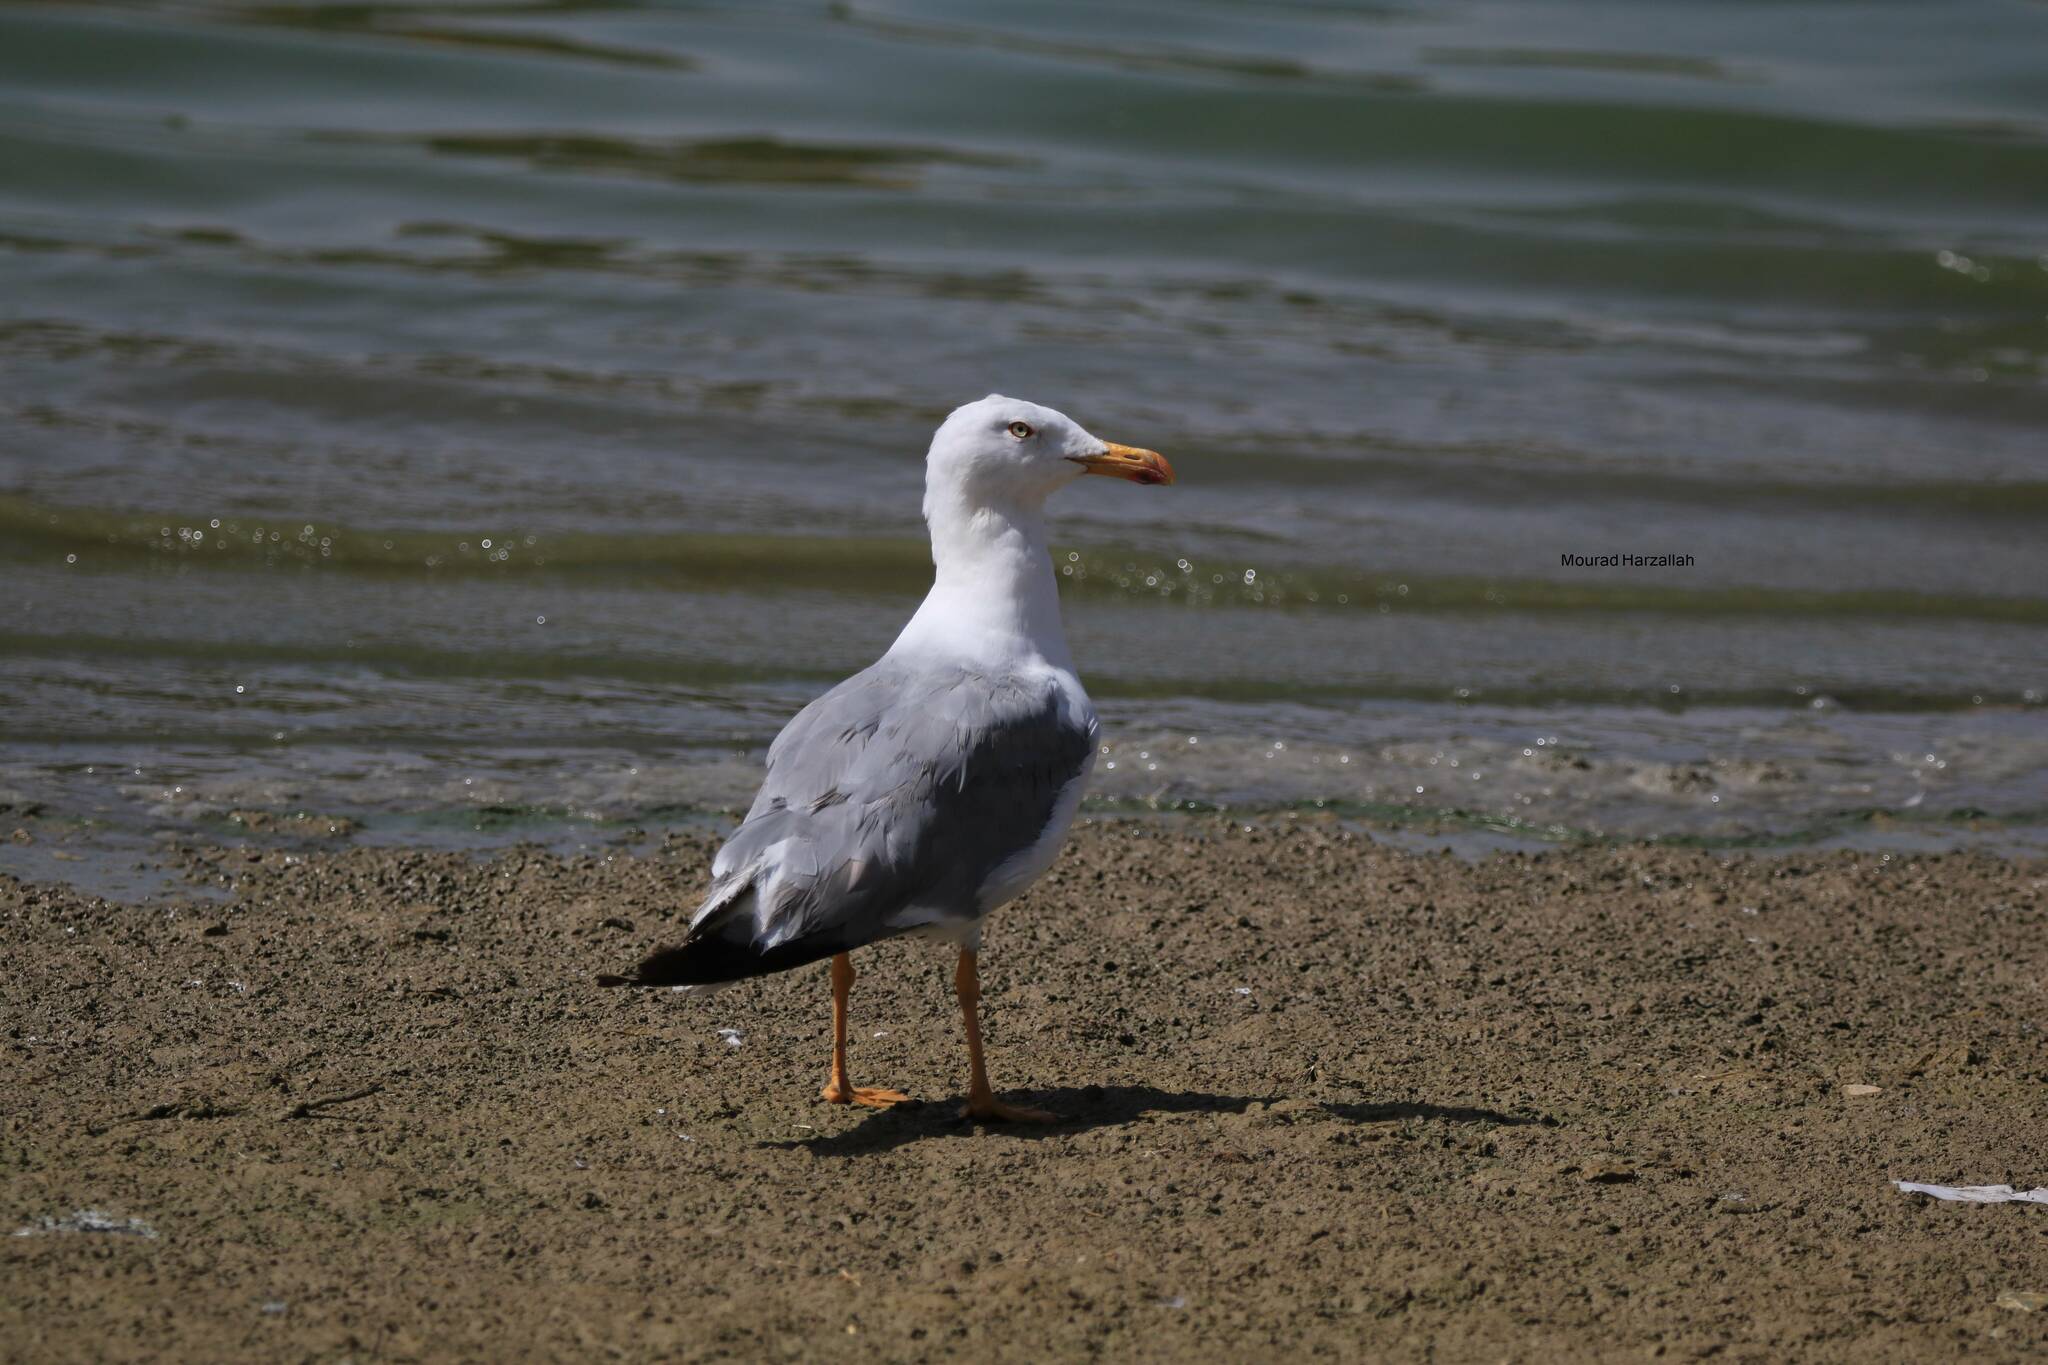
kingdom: Animalia
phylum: Chordata
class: Aves
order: Charadriiformes
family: Laridae
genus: Larus
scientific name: Larus michahellis
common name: Yellow-legged gull
